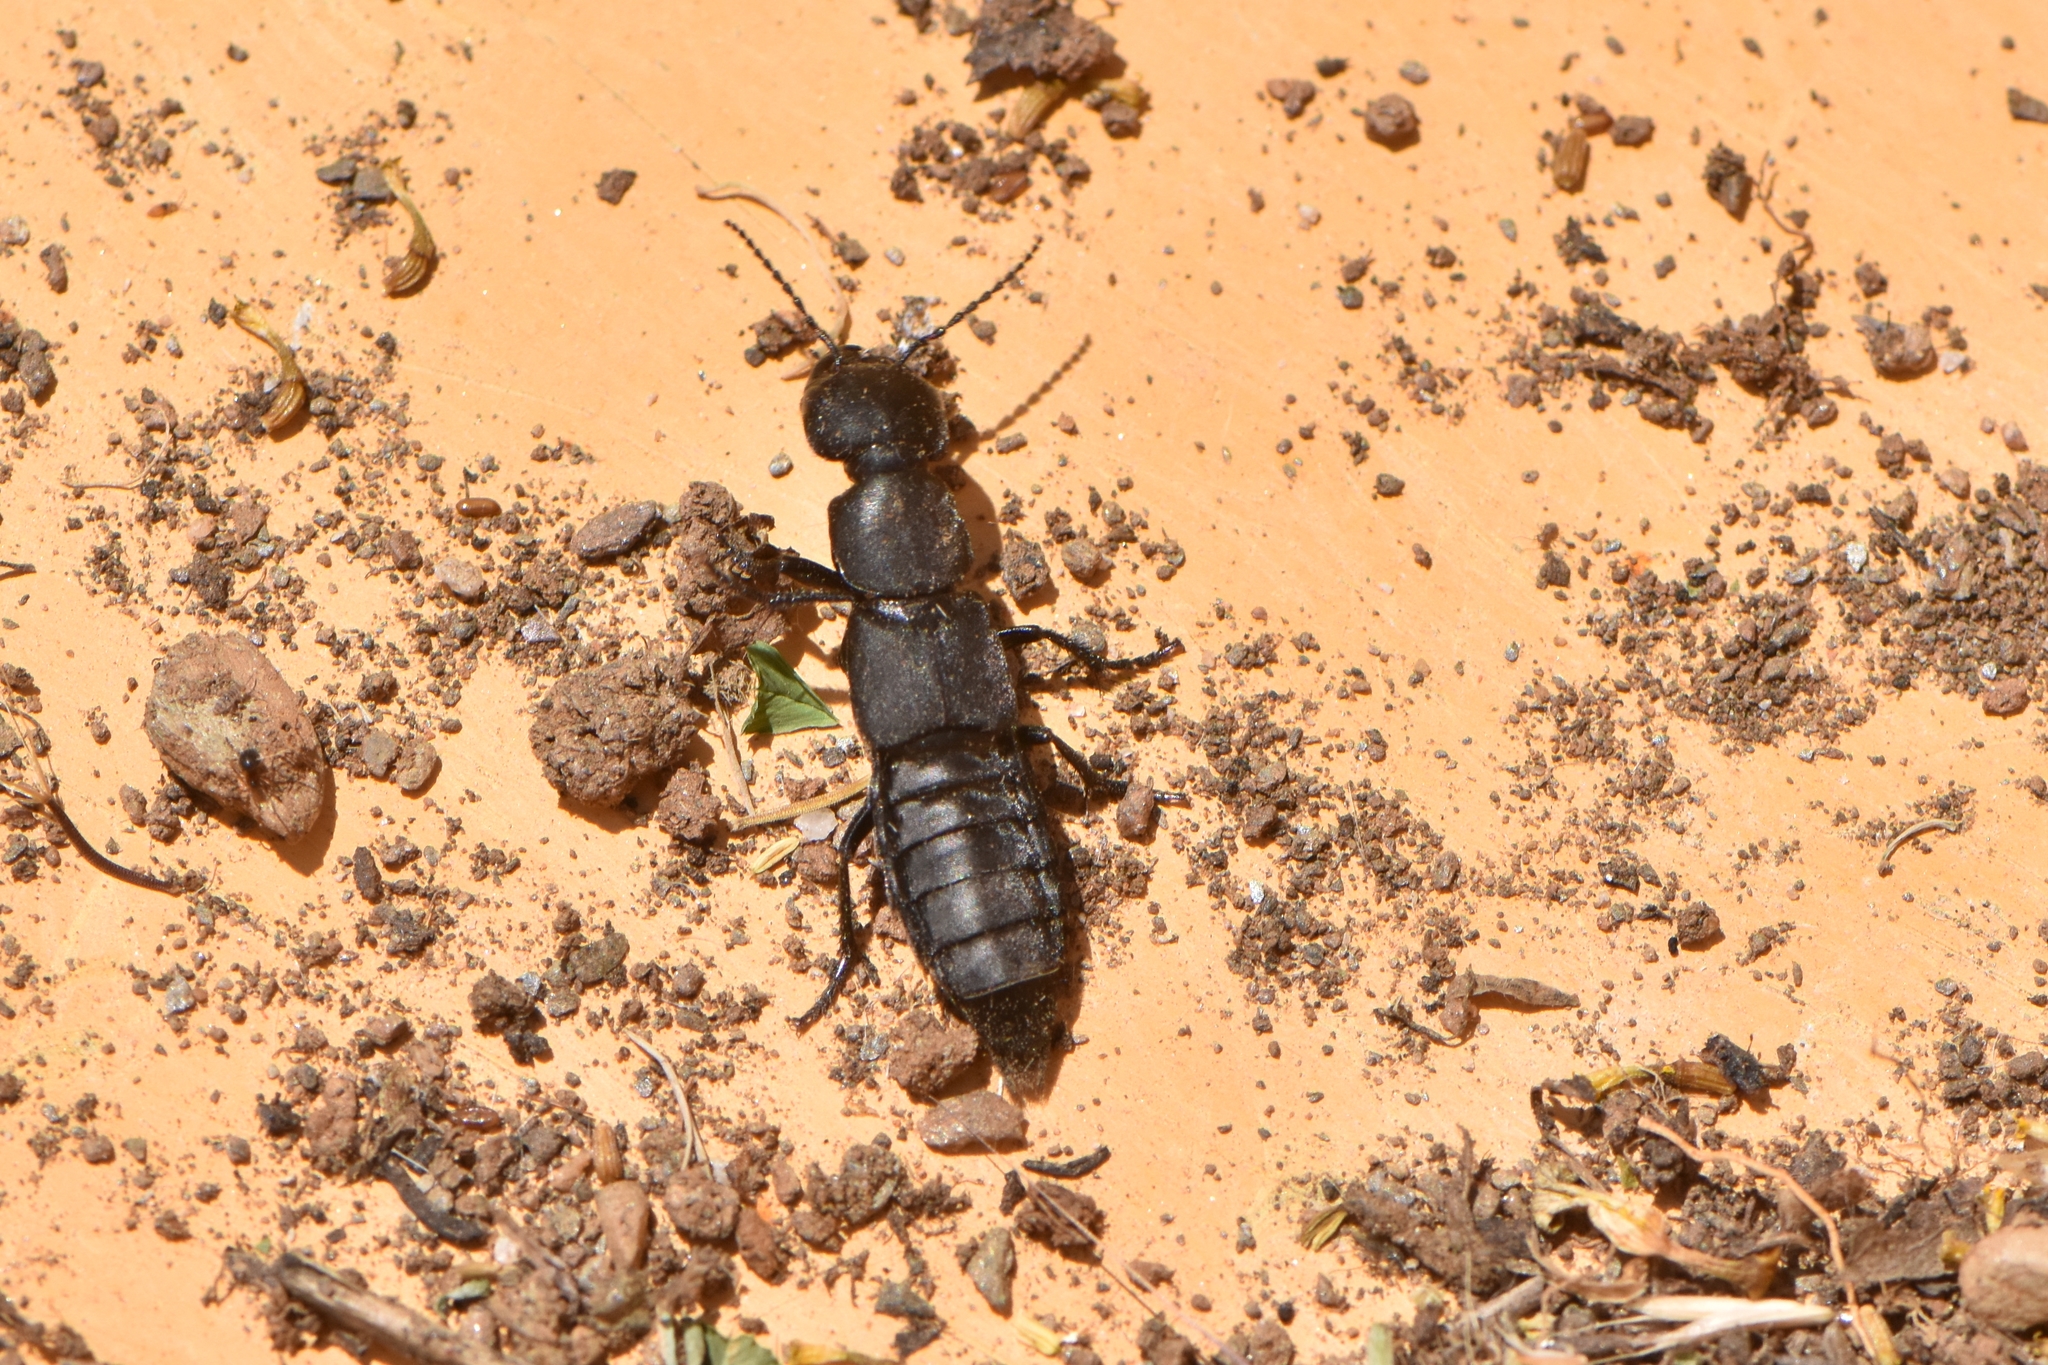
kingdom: Animalia
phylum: Arthropoda
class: Insecta
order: Coleoptera
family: Staphylinidae
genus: Ocypus
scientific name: Ocypus olens
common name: Devil's coach-horse
